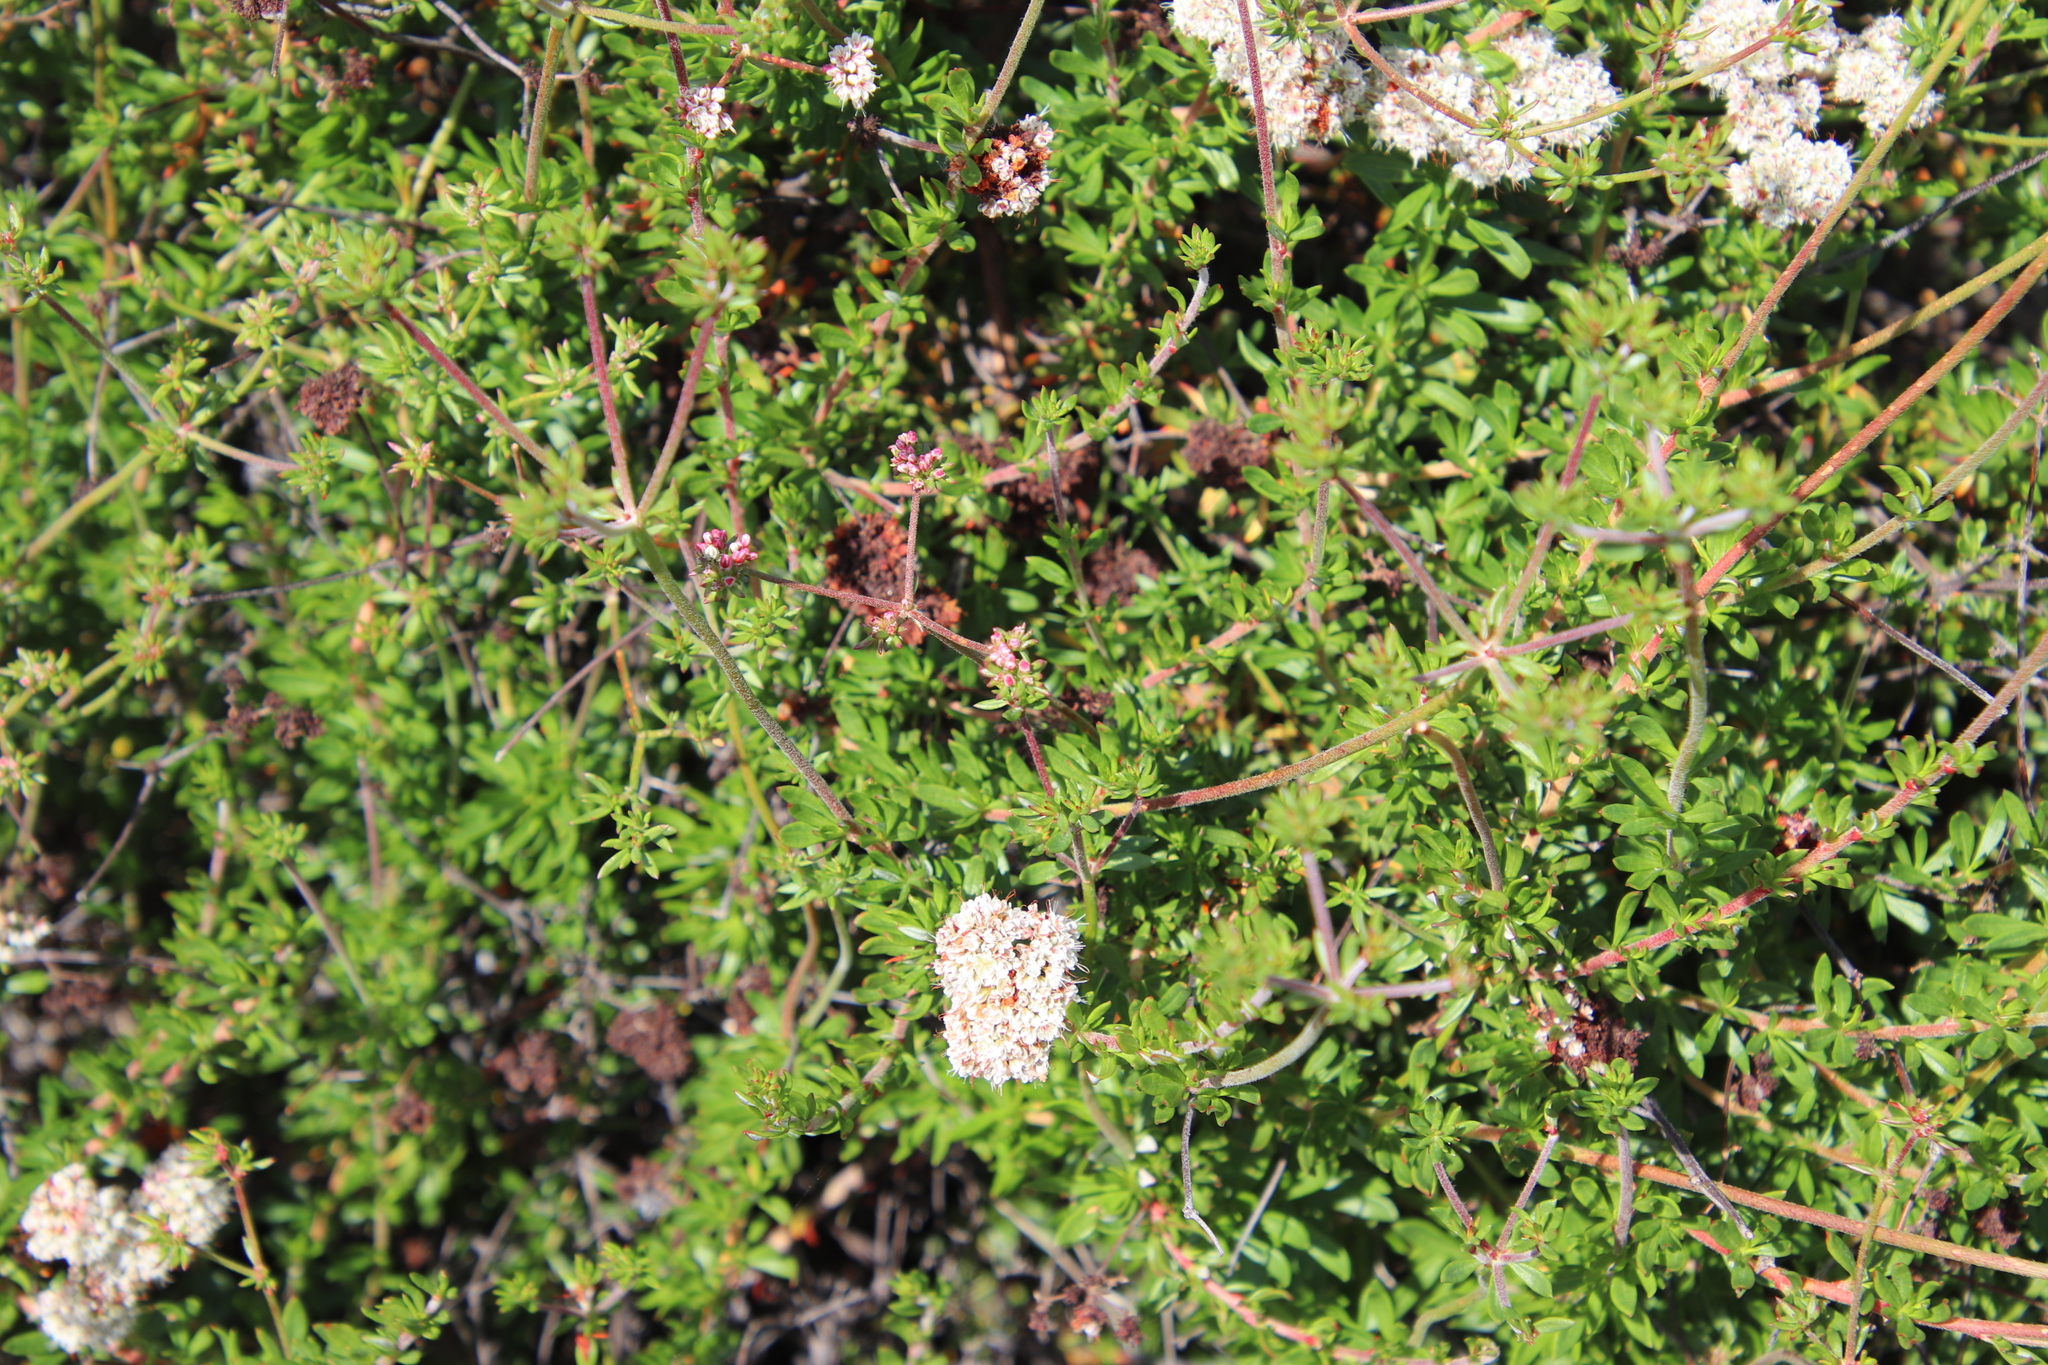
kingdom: Plantae
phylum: Tracheophyta
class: Magnoliopsida
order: Caryophyllales
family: Polygonaceae
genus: Eriogonum
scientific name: Eriogonum fasciculatum
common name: California wild buckwheat
